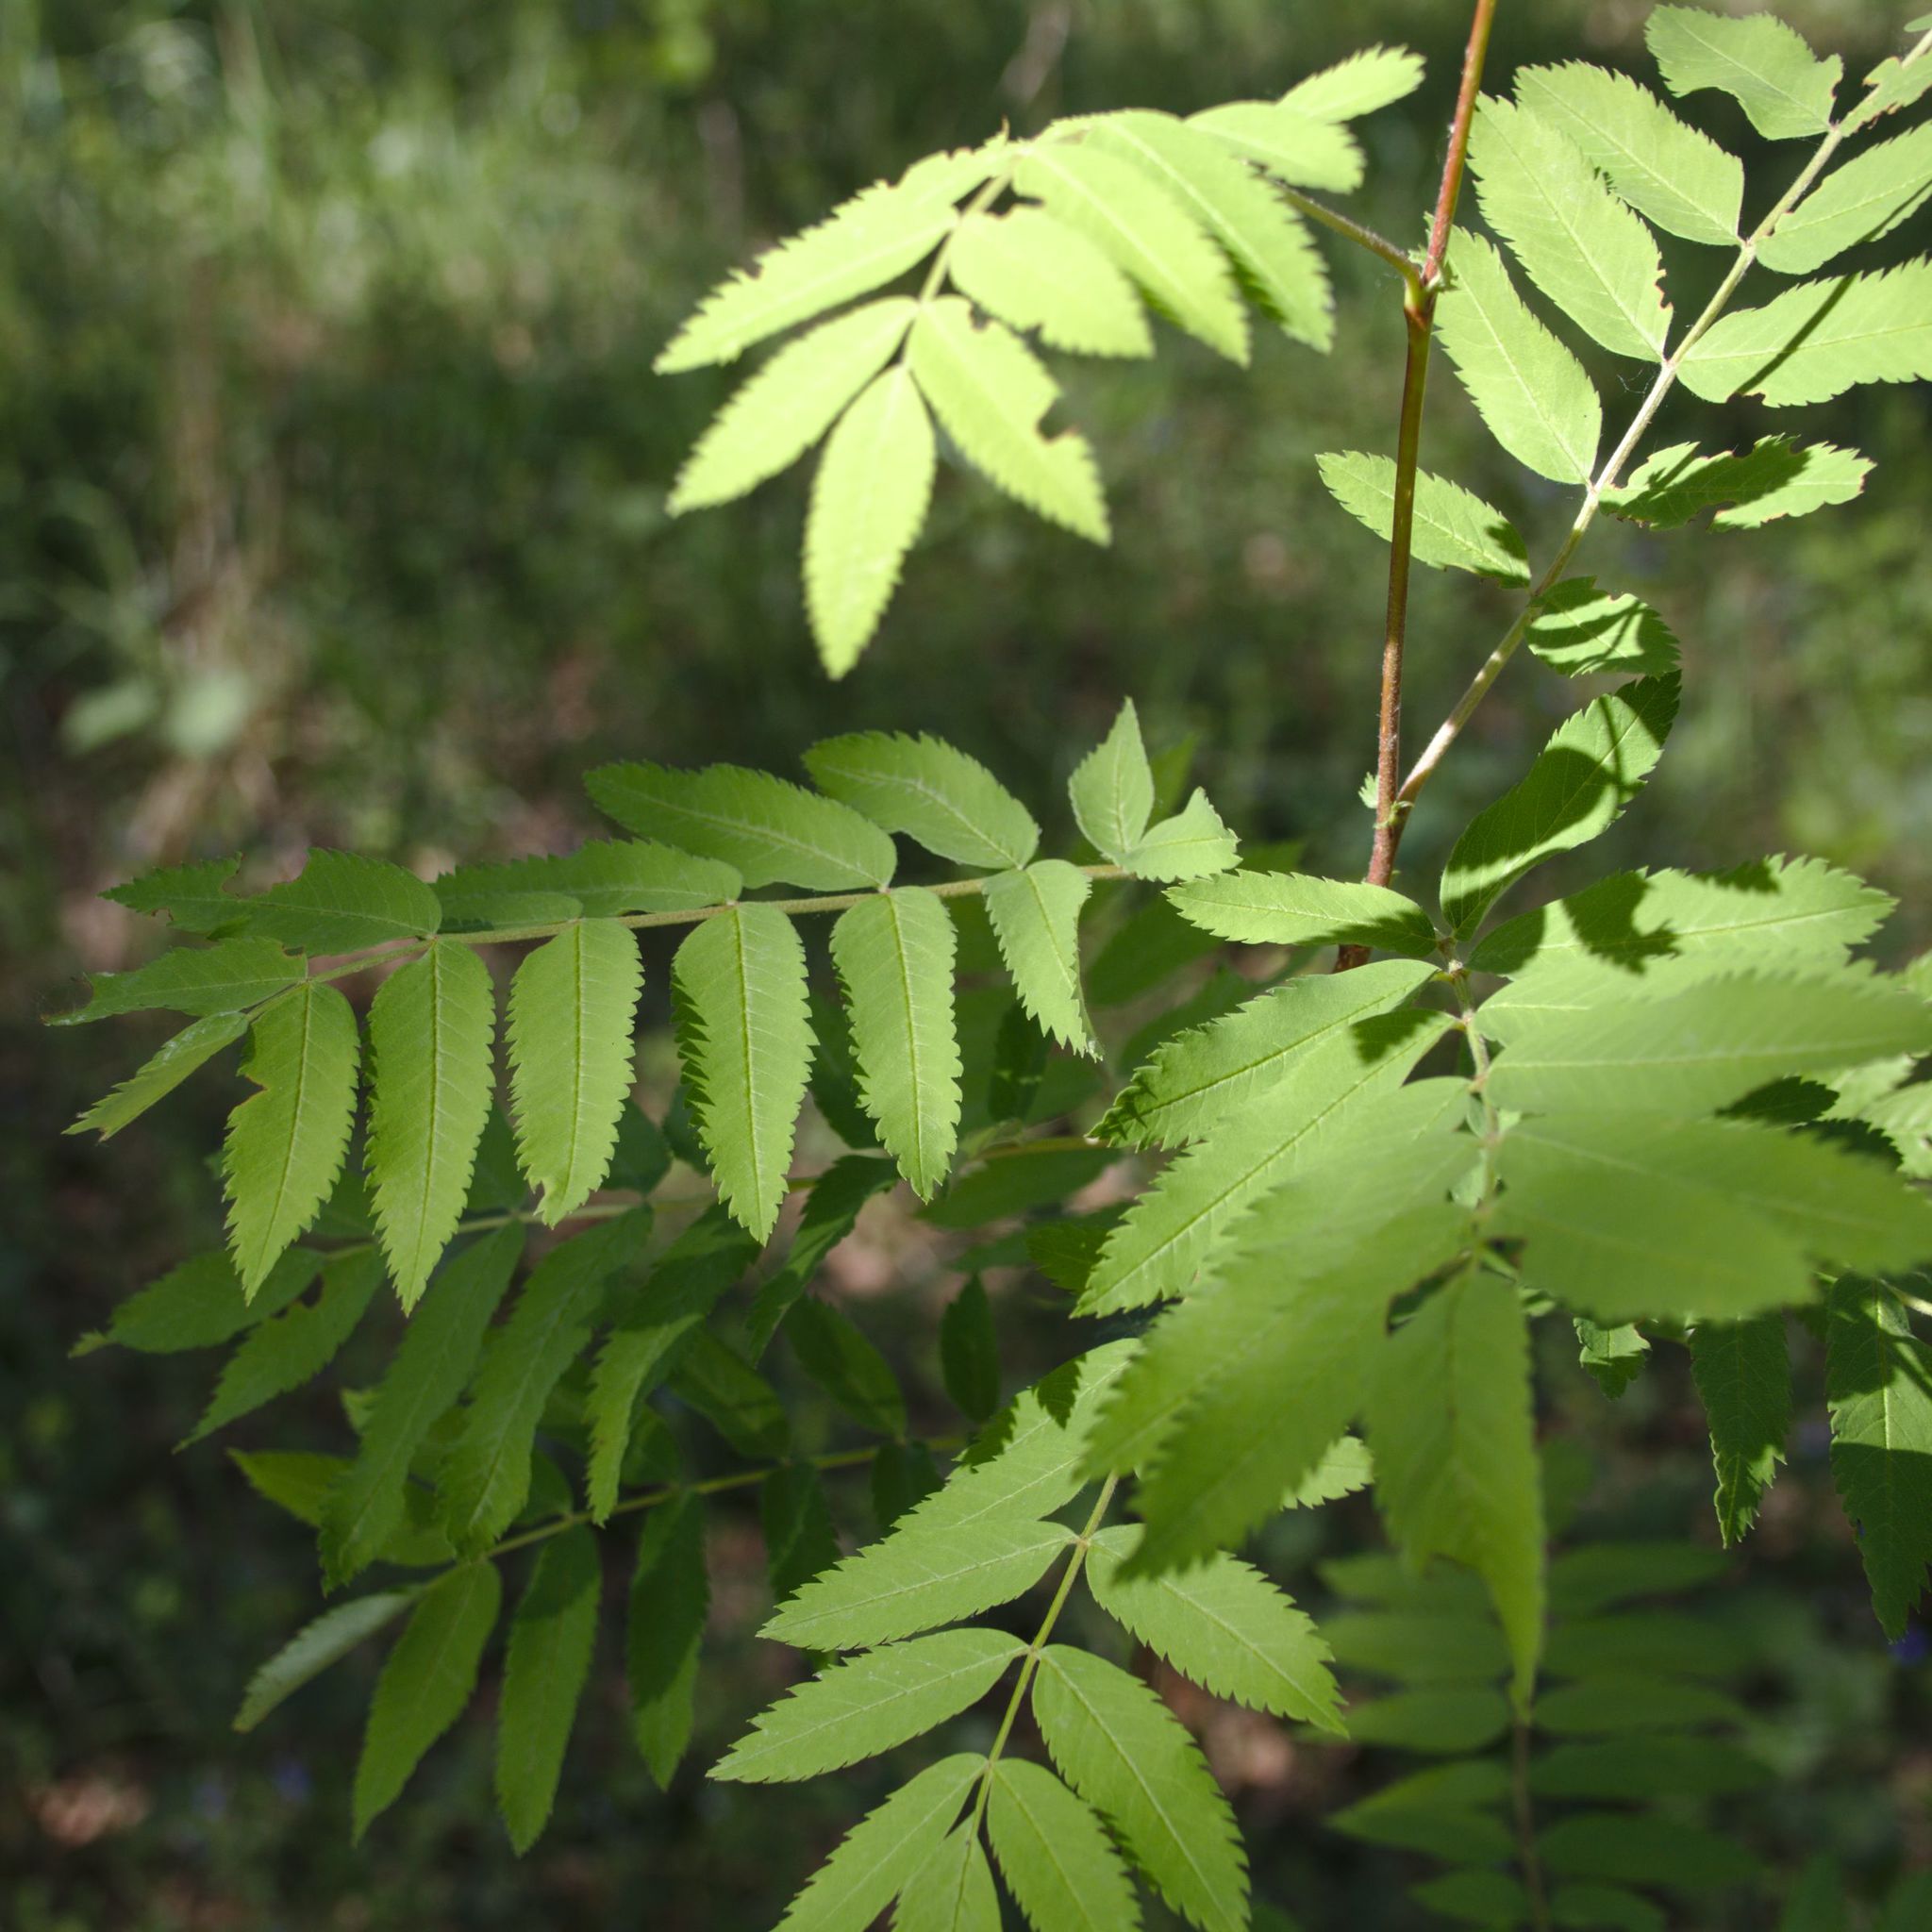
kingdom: Plantae
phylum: Tracheophyta
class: Magnoliopsida
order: Rosales
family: Rosaceae
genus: Sorbus
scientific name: Sorbus aucuparia
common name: Rowan
